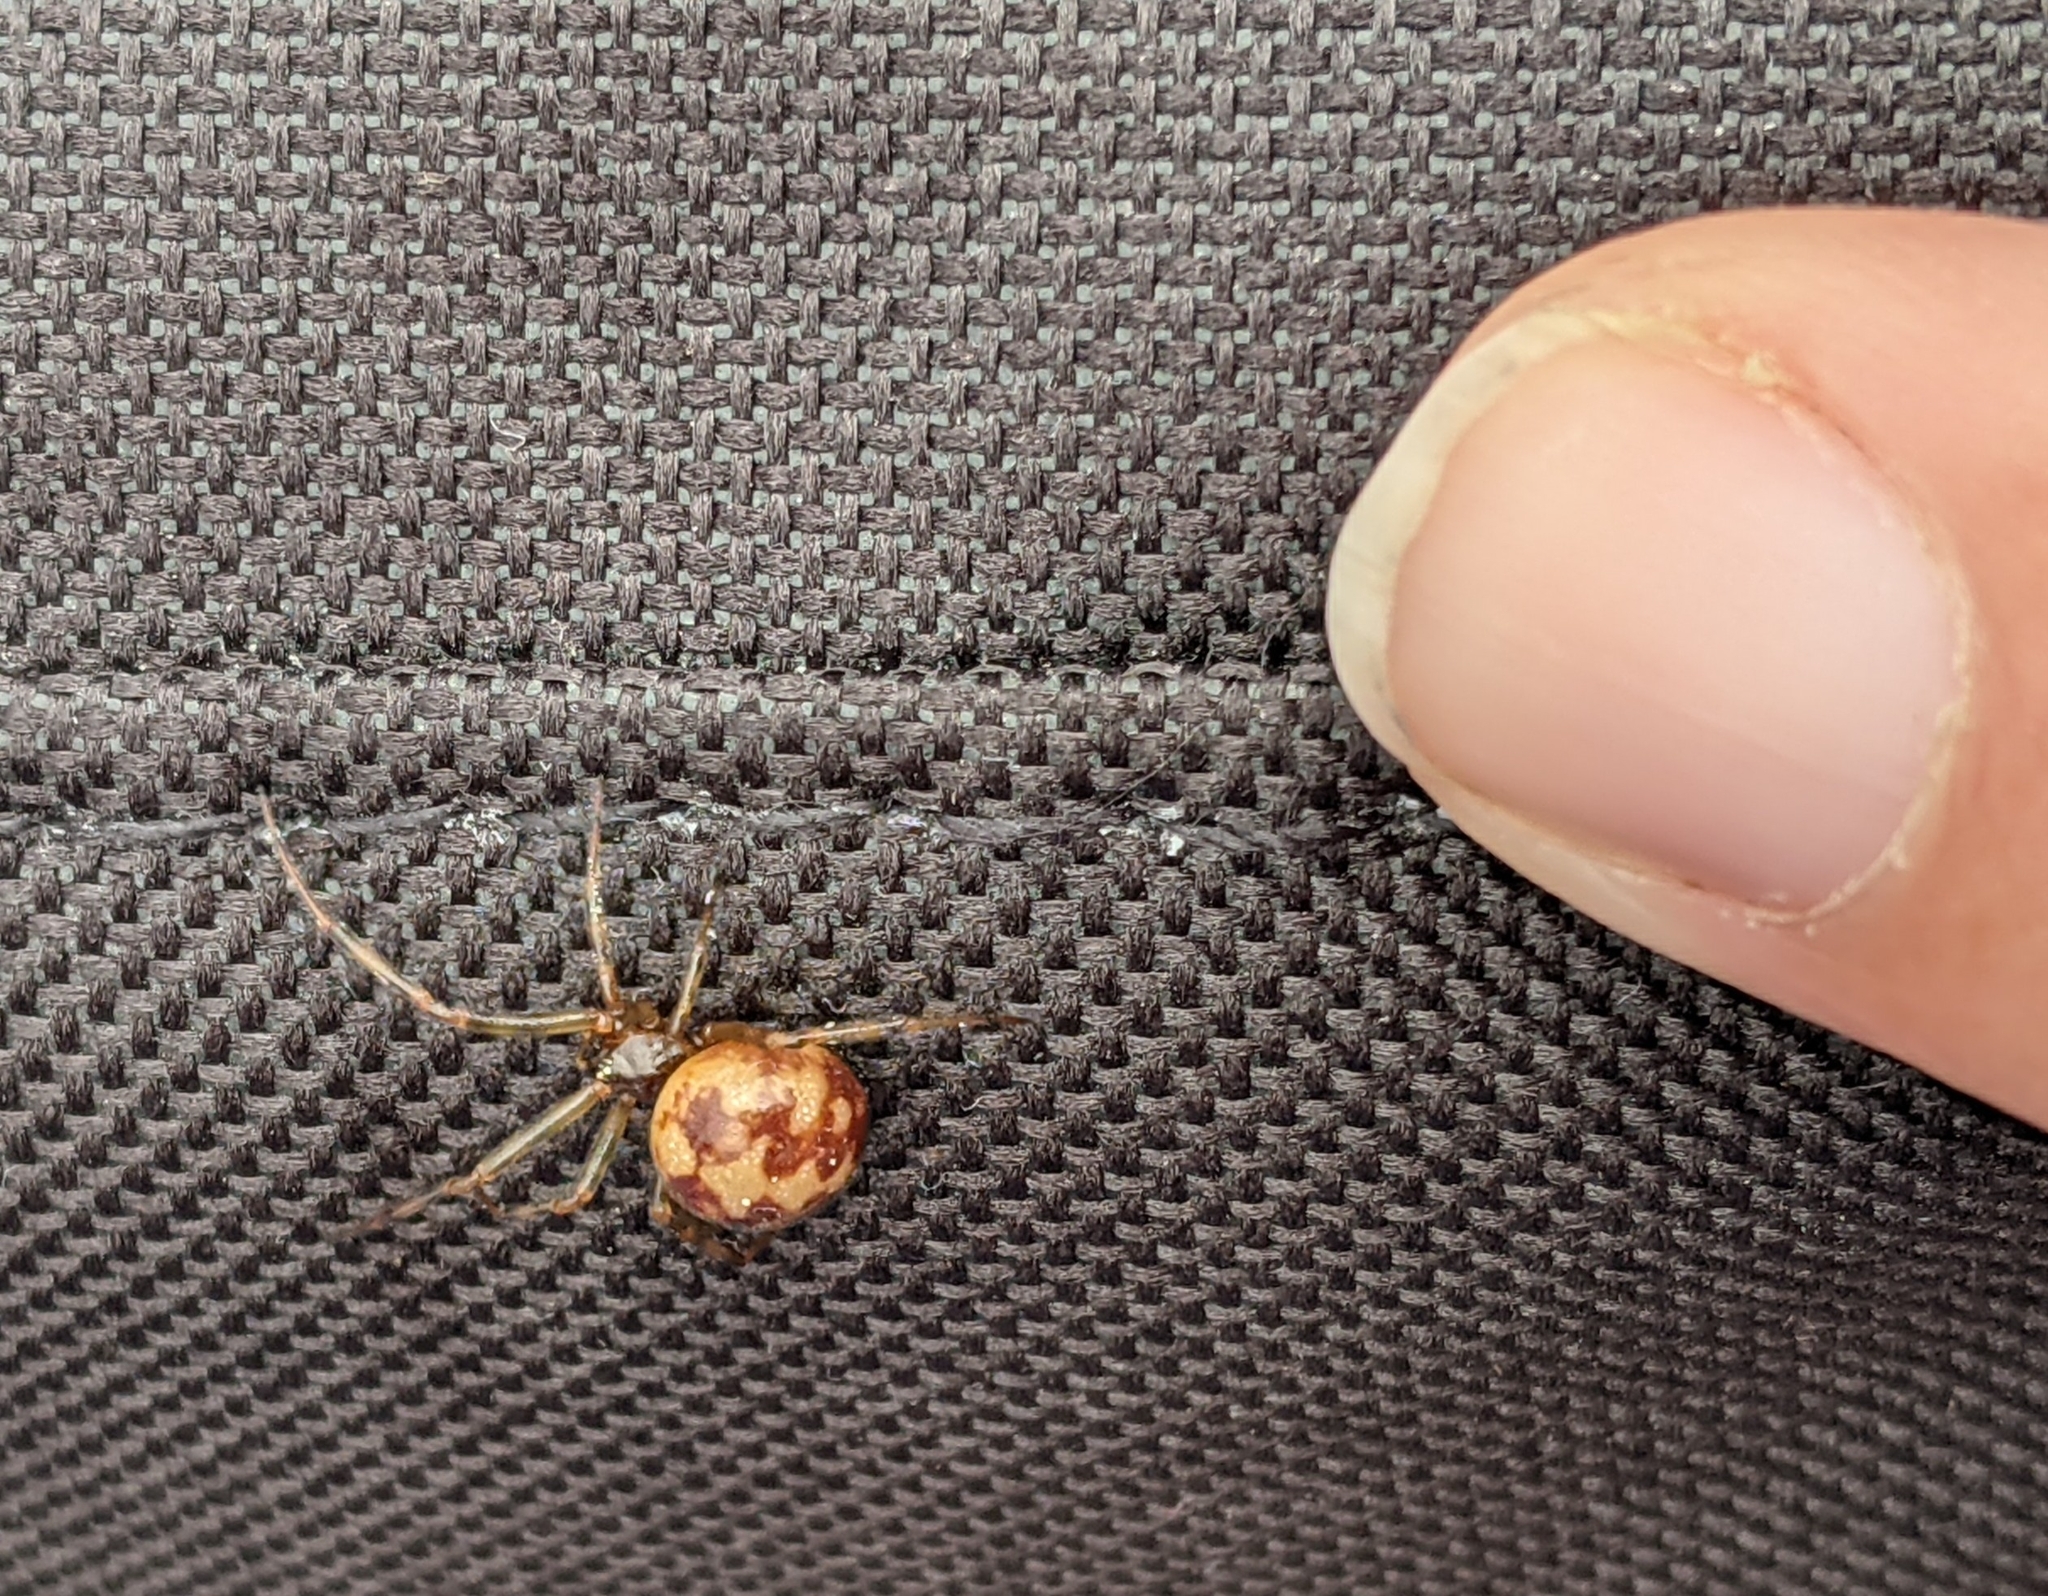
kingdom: Animalia
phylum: Arthropoda
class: Arachnida
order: Araneae
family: Theridiidae
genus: Steatoda
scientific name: Steatoda triangulosa
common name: Triangulate bud spider
